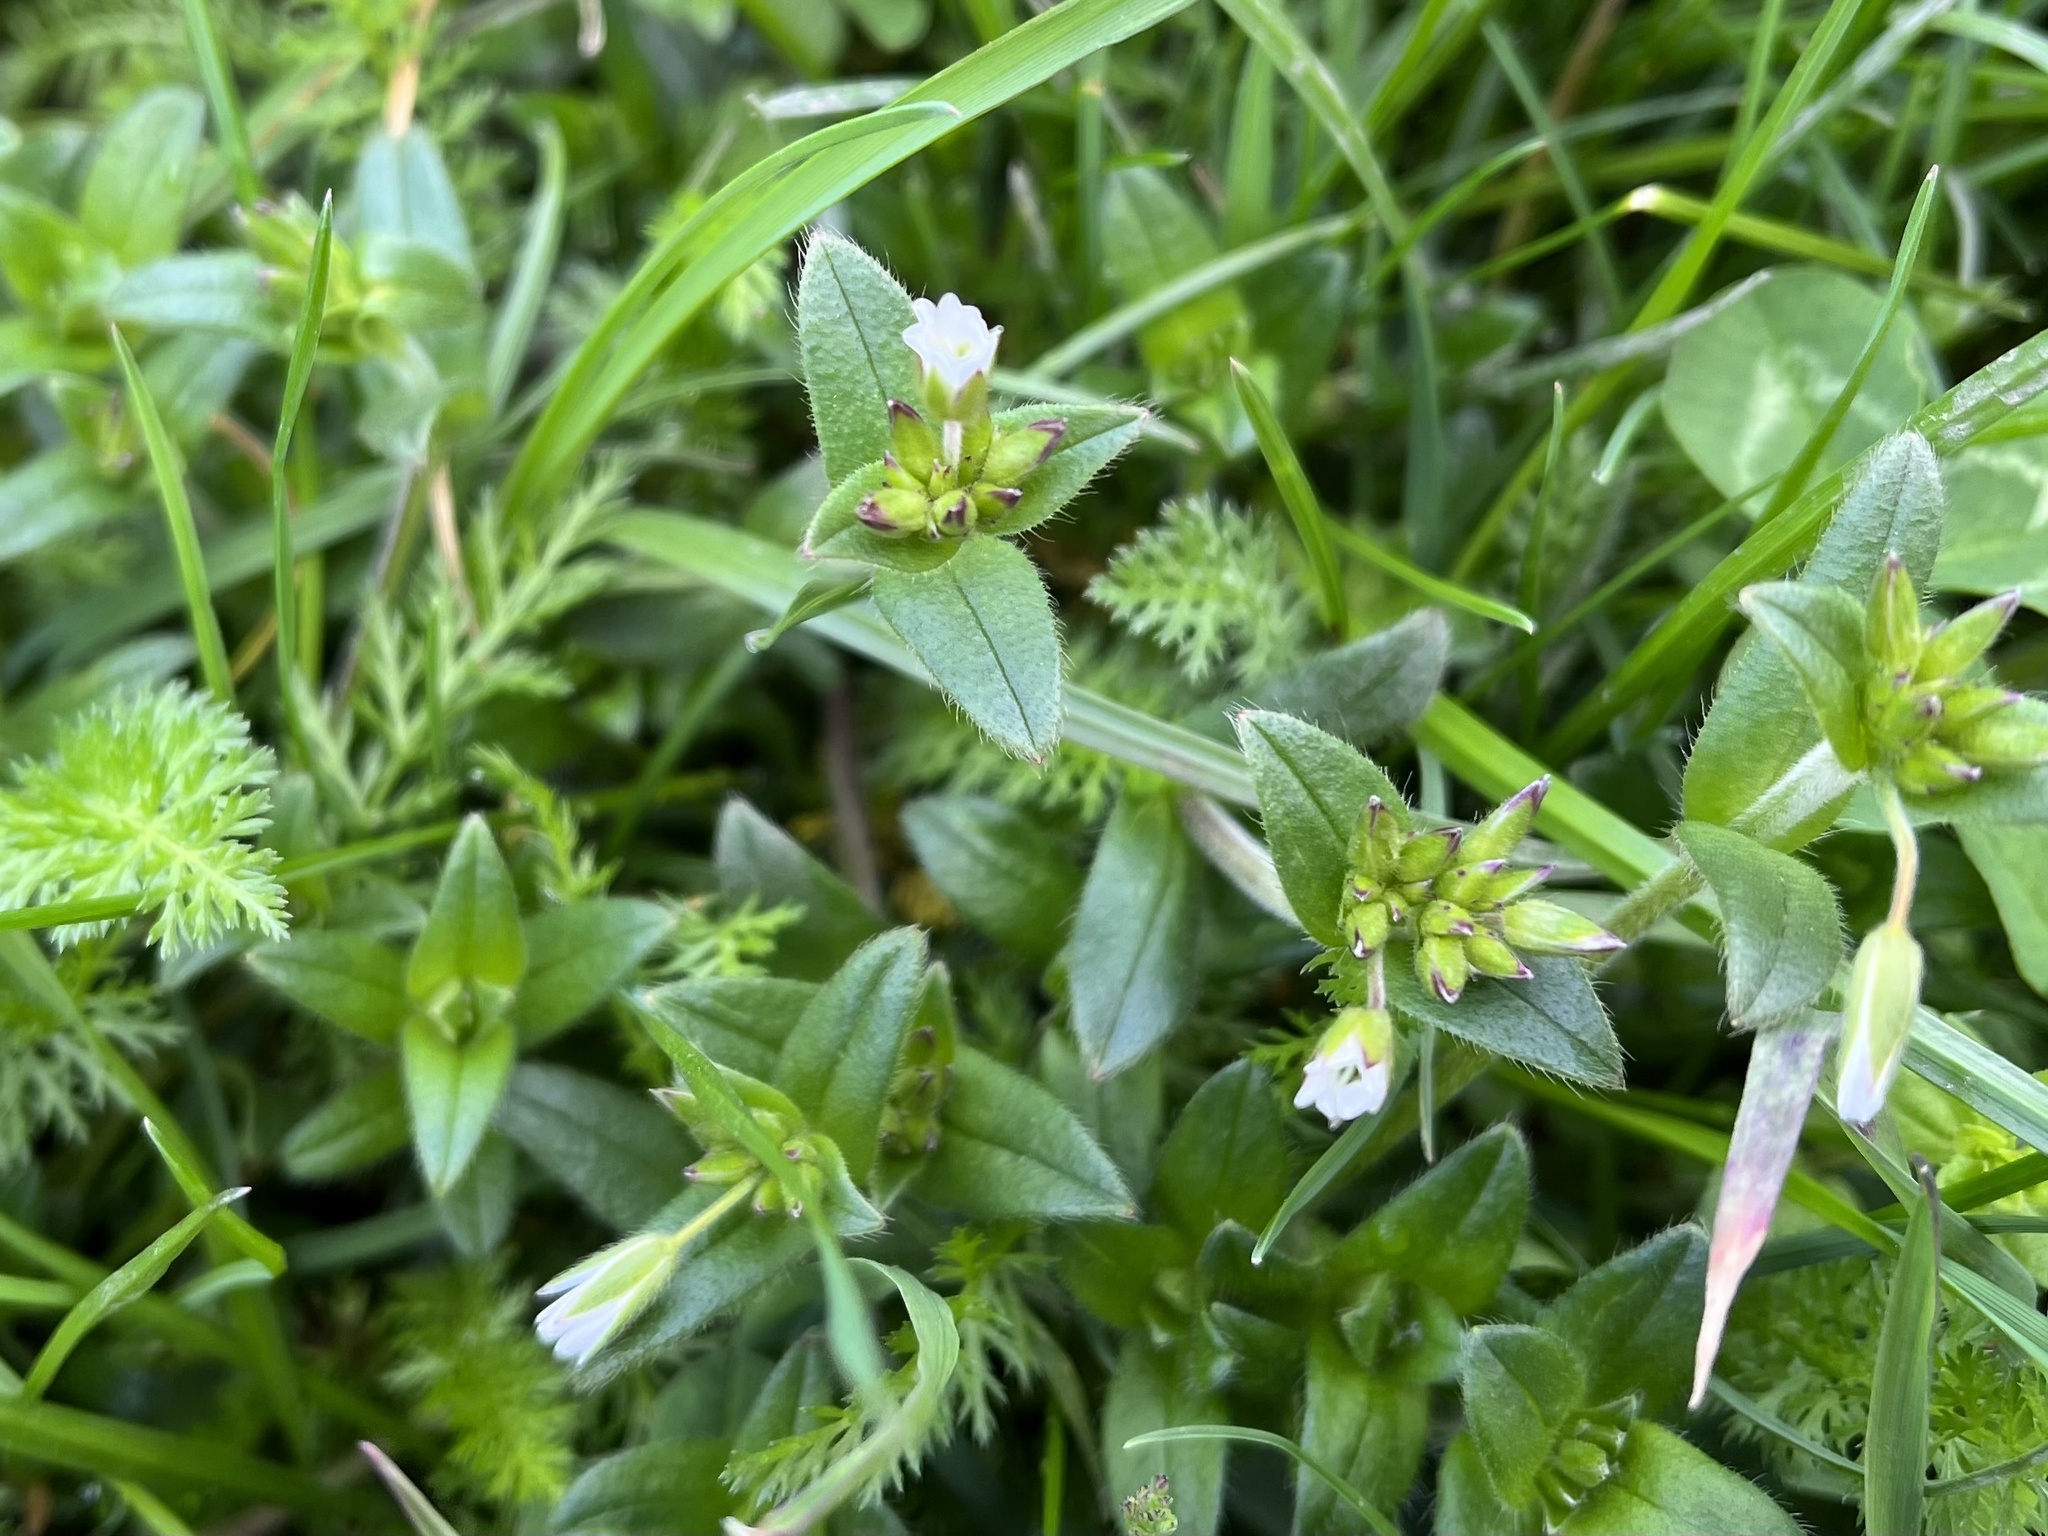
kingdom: Plantae
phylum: Tracheophyta
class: Magnoliopsida
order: Caryophyllales
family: Caryophyllaceae
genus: Cerastium
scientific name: Cerastium holosteoides
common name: Big chickweed
